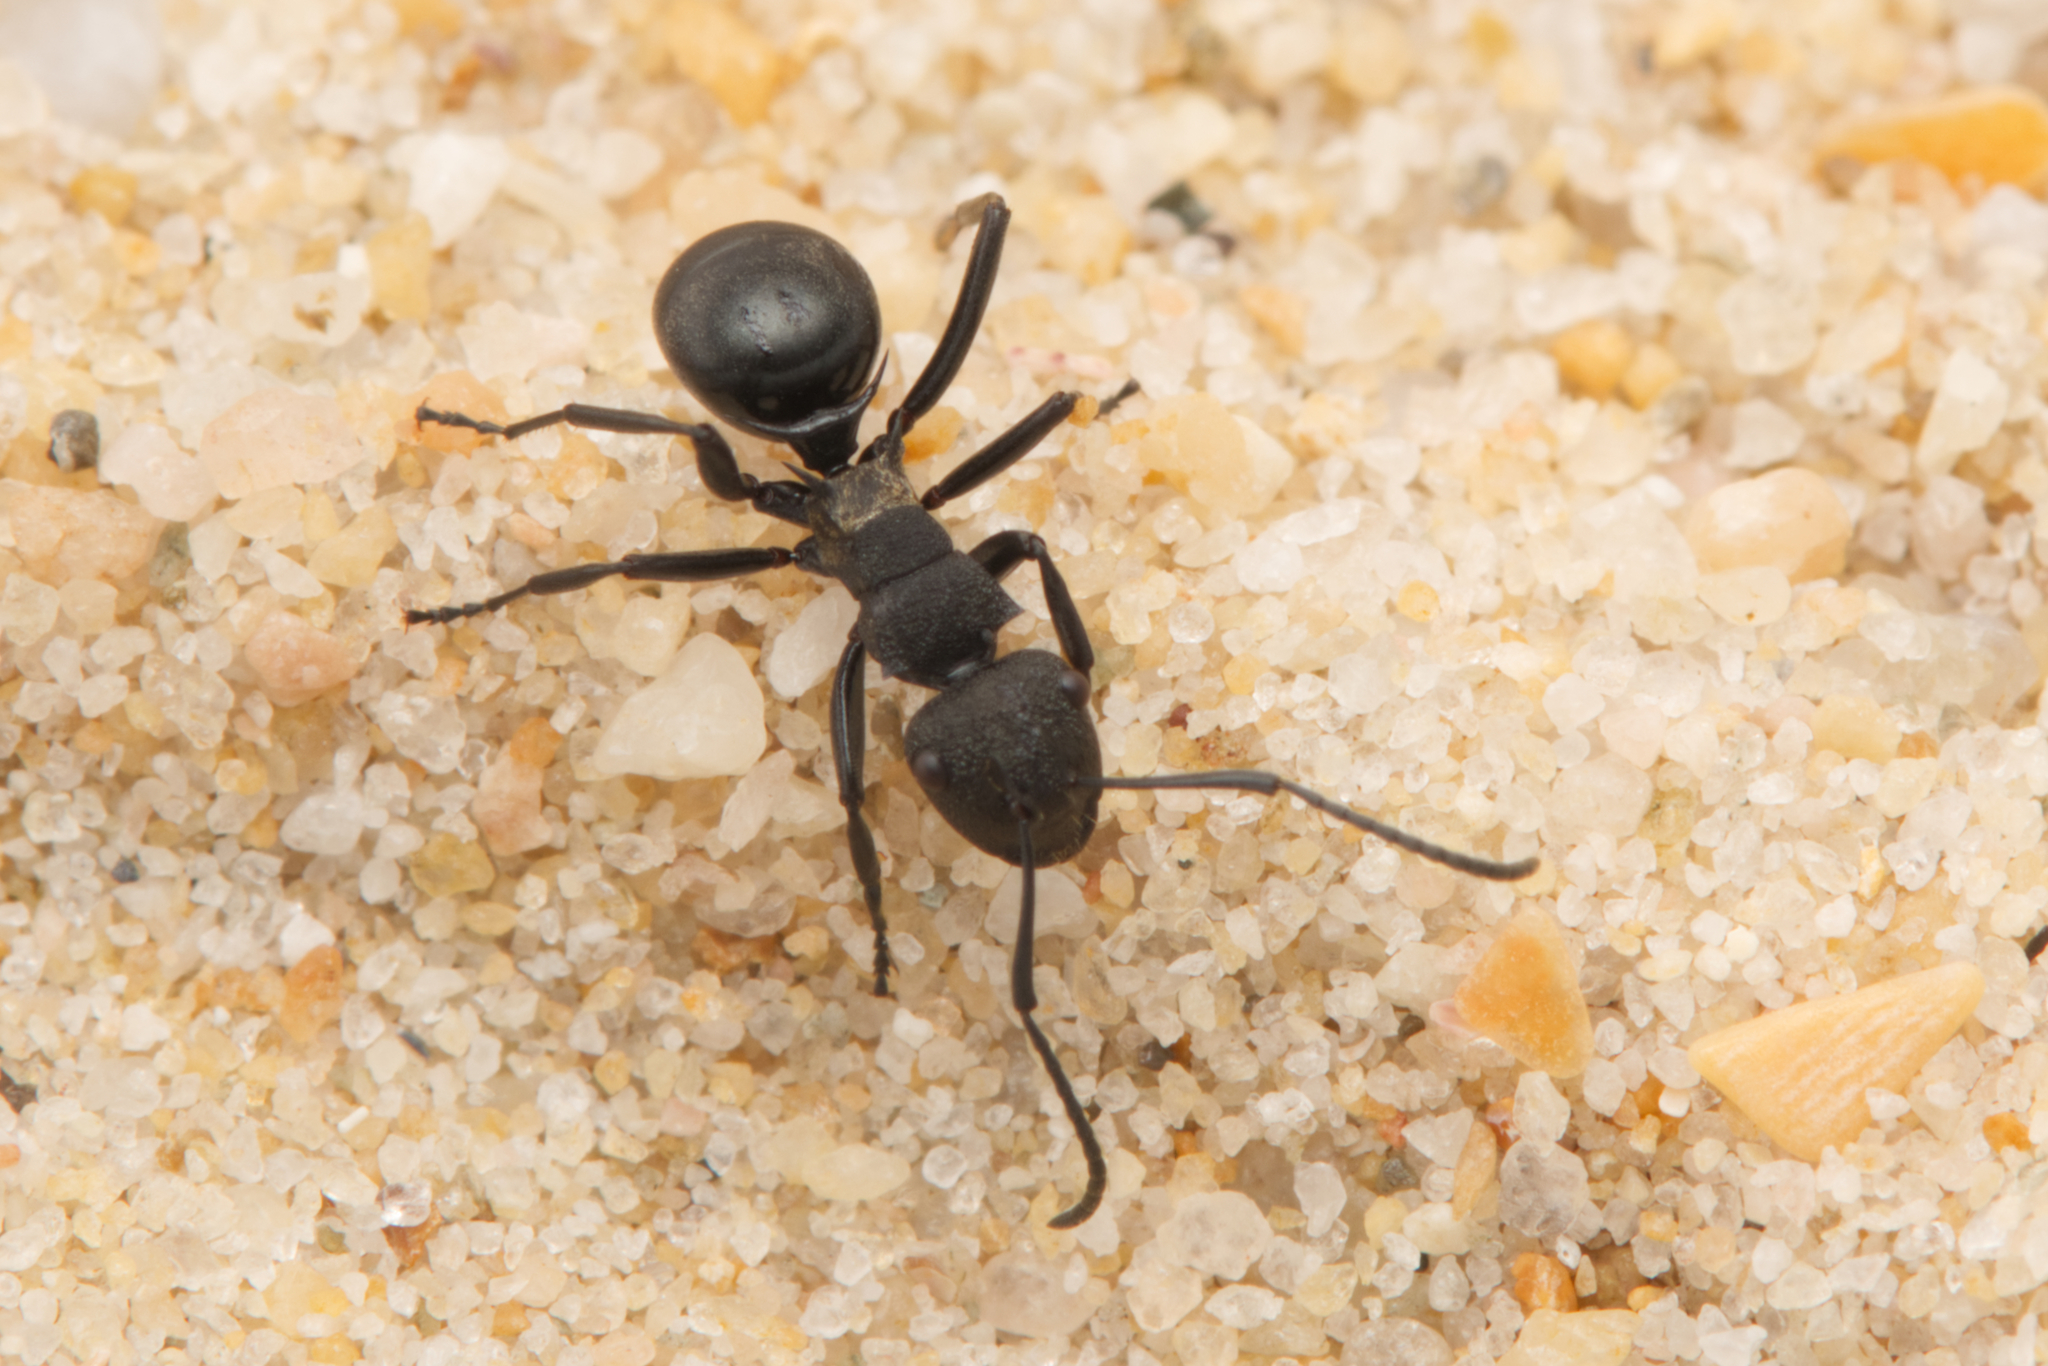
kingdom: Animalia
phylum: Arthropoda
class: Insecta
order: Hymenoptera
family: Formicidae
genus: Polyrhachis
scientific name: Polyrhachis machaon
